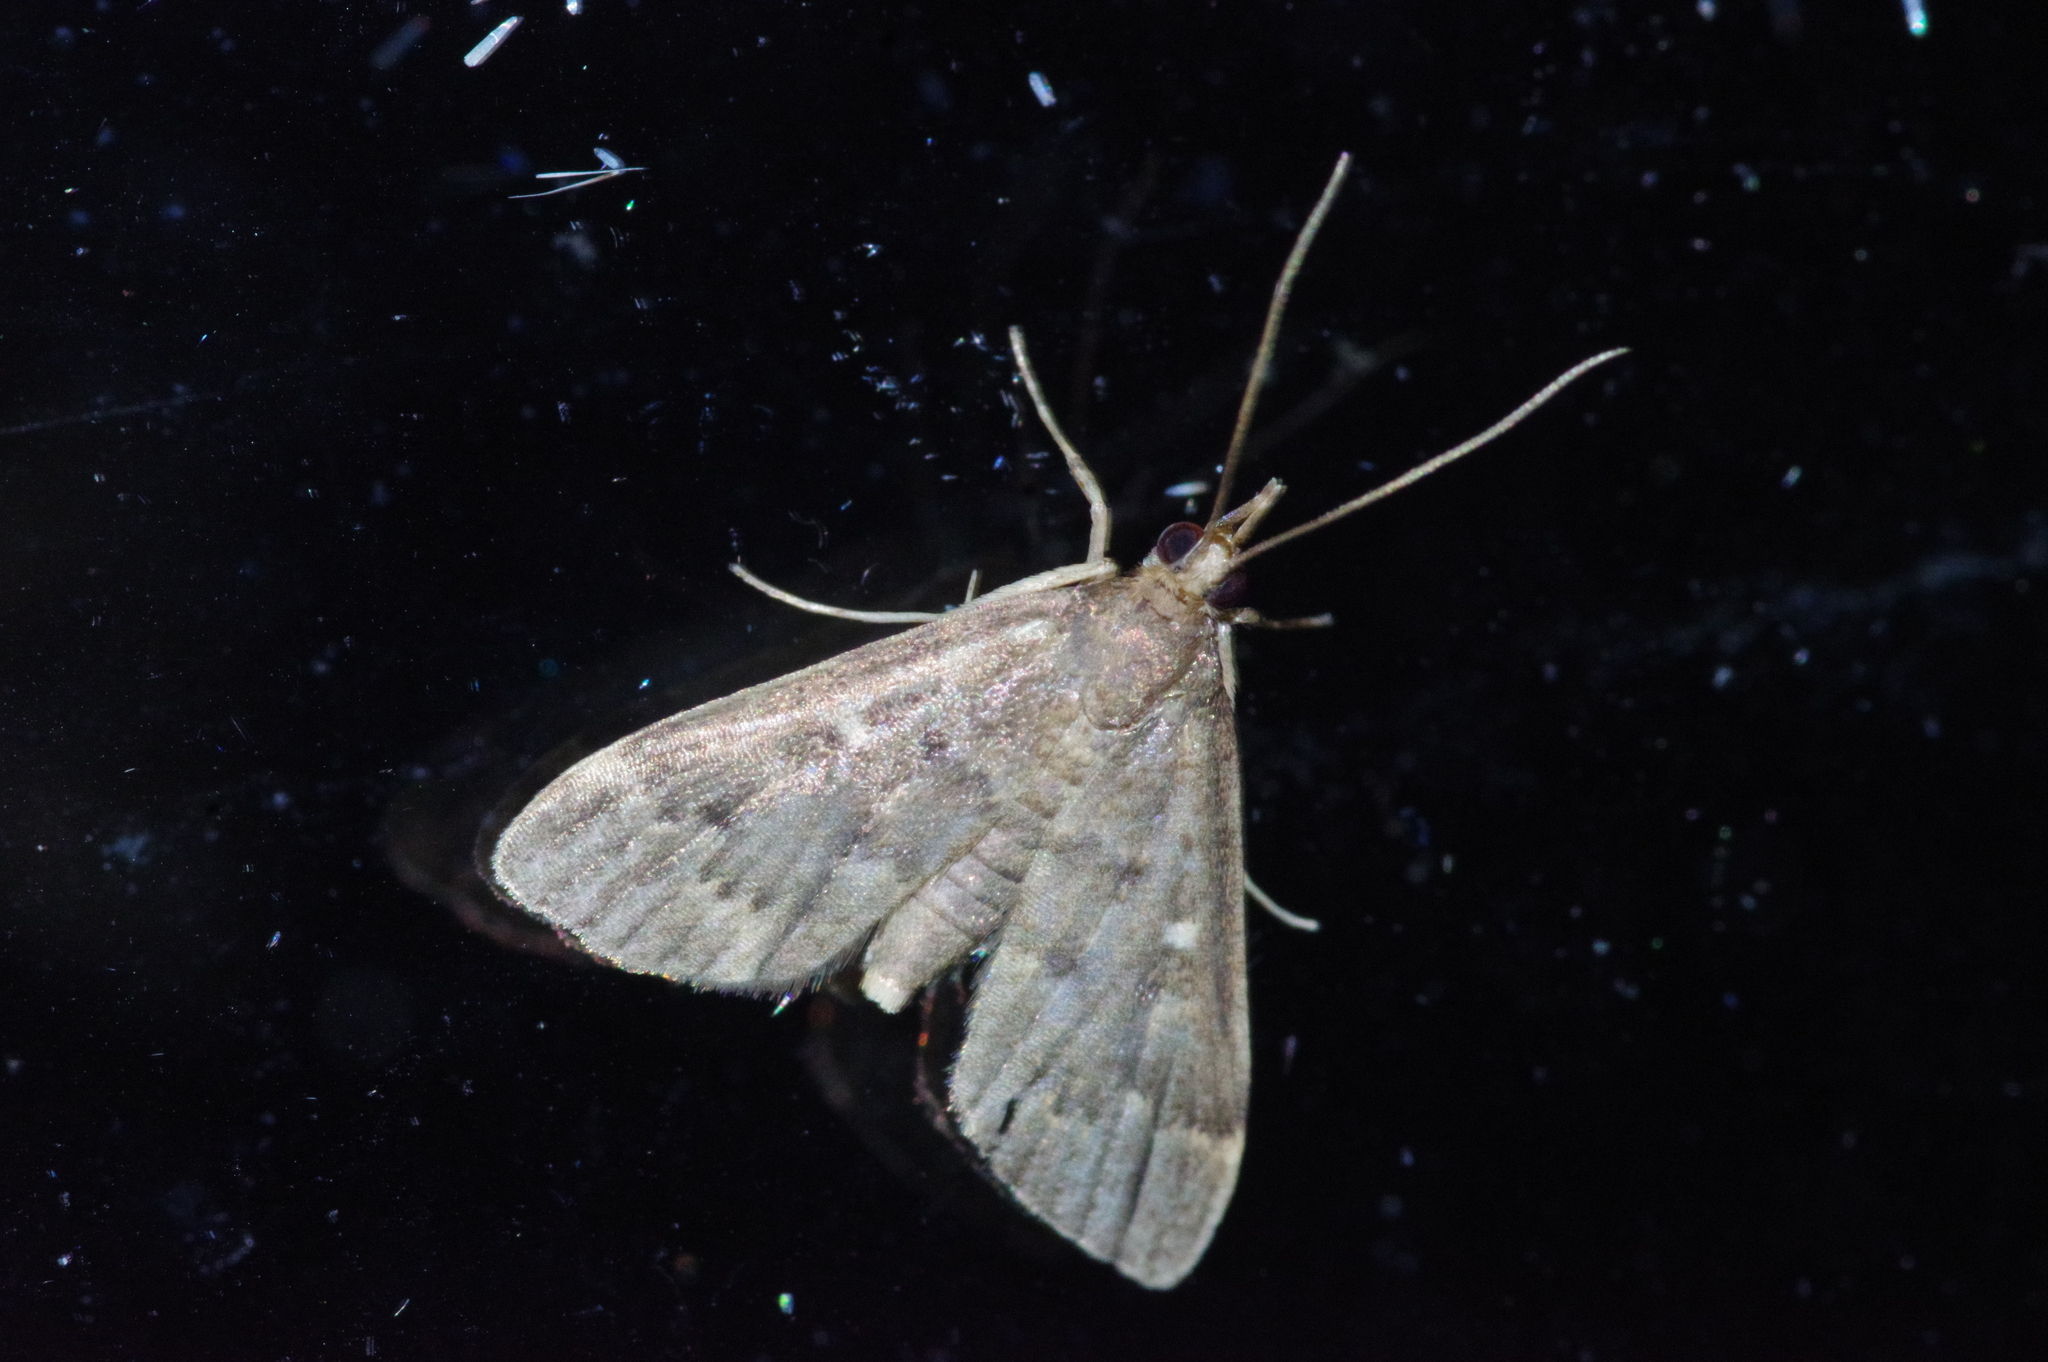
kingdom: Animalia
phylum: Arthropoda
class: Insecta
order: Lepidoptera
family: Crambidae
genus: Camptomastix
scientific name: Camptomastix hisbonalis
